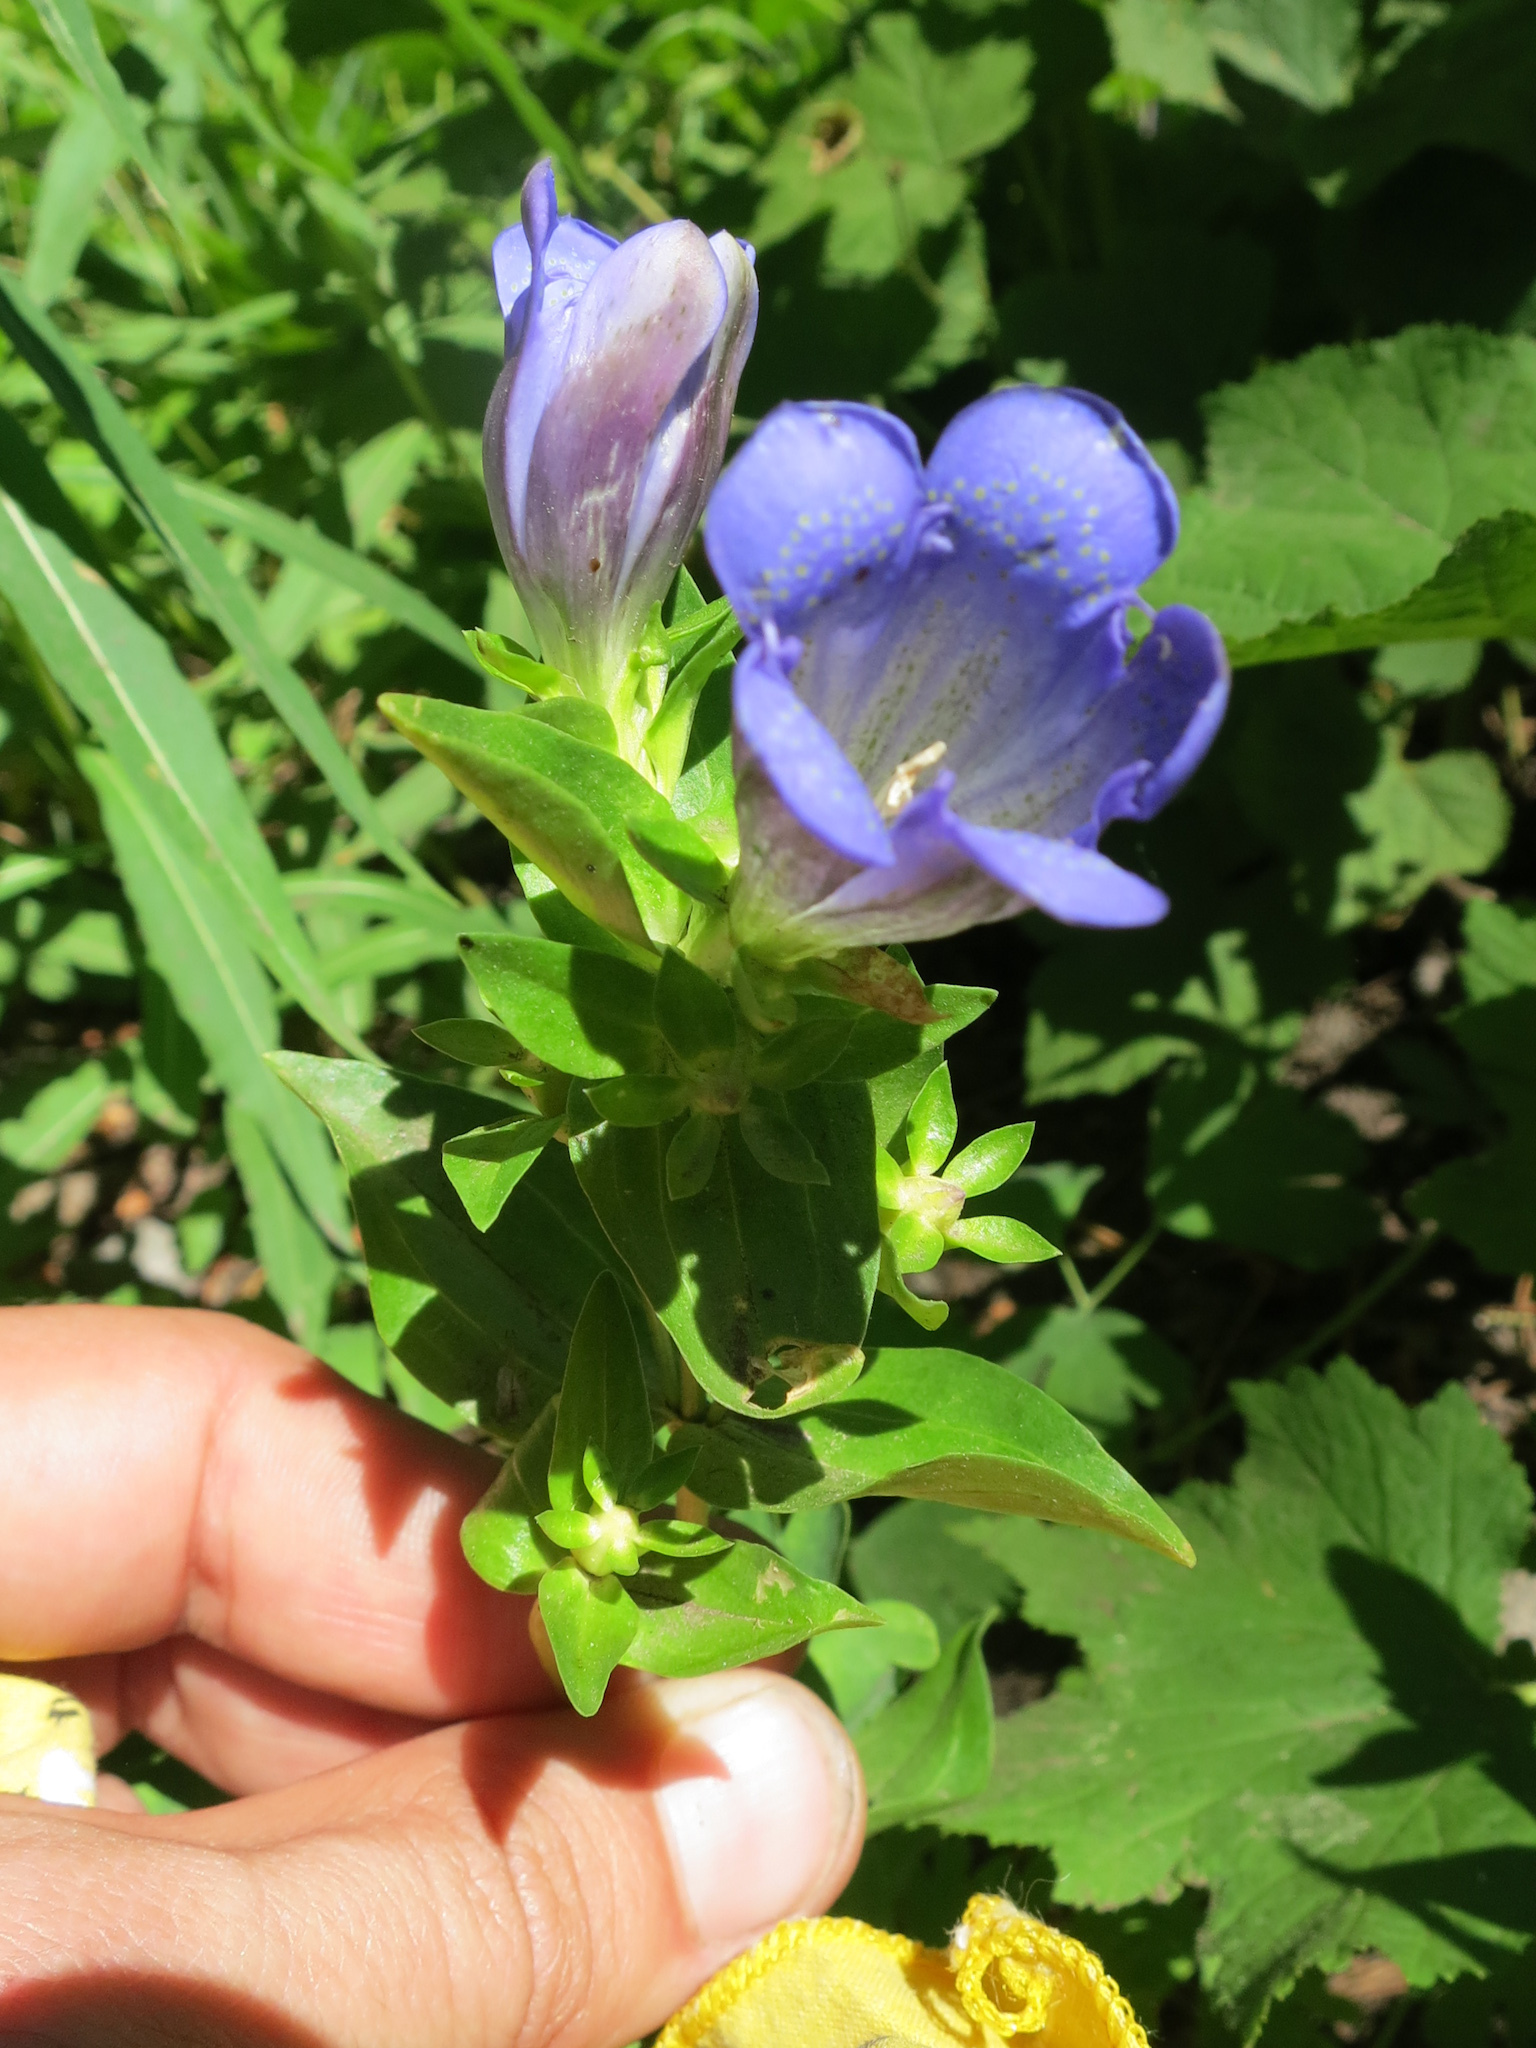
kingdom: Plantae
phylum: Tracheophyta
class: Magnoliopsida
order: Gentianales
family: Gentianaceae
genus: Gentiana
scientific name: Gentiana calycosa
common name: Rainier pleated gentian
